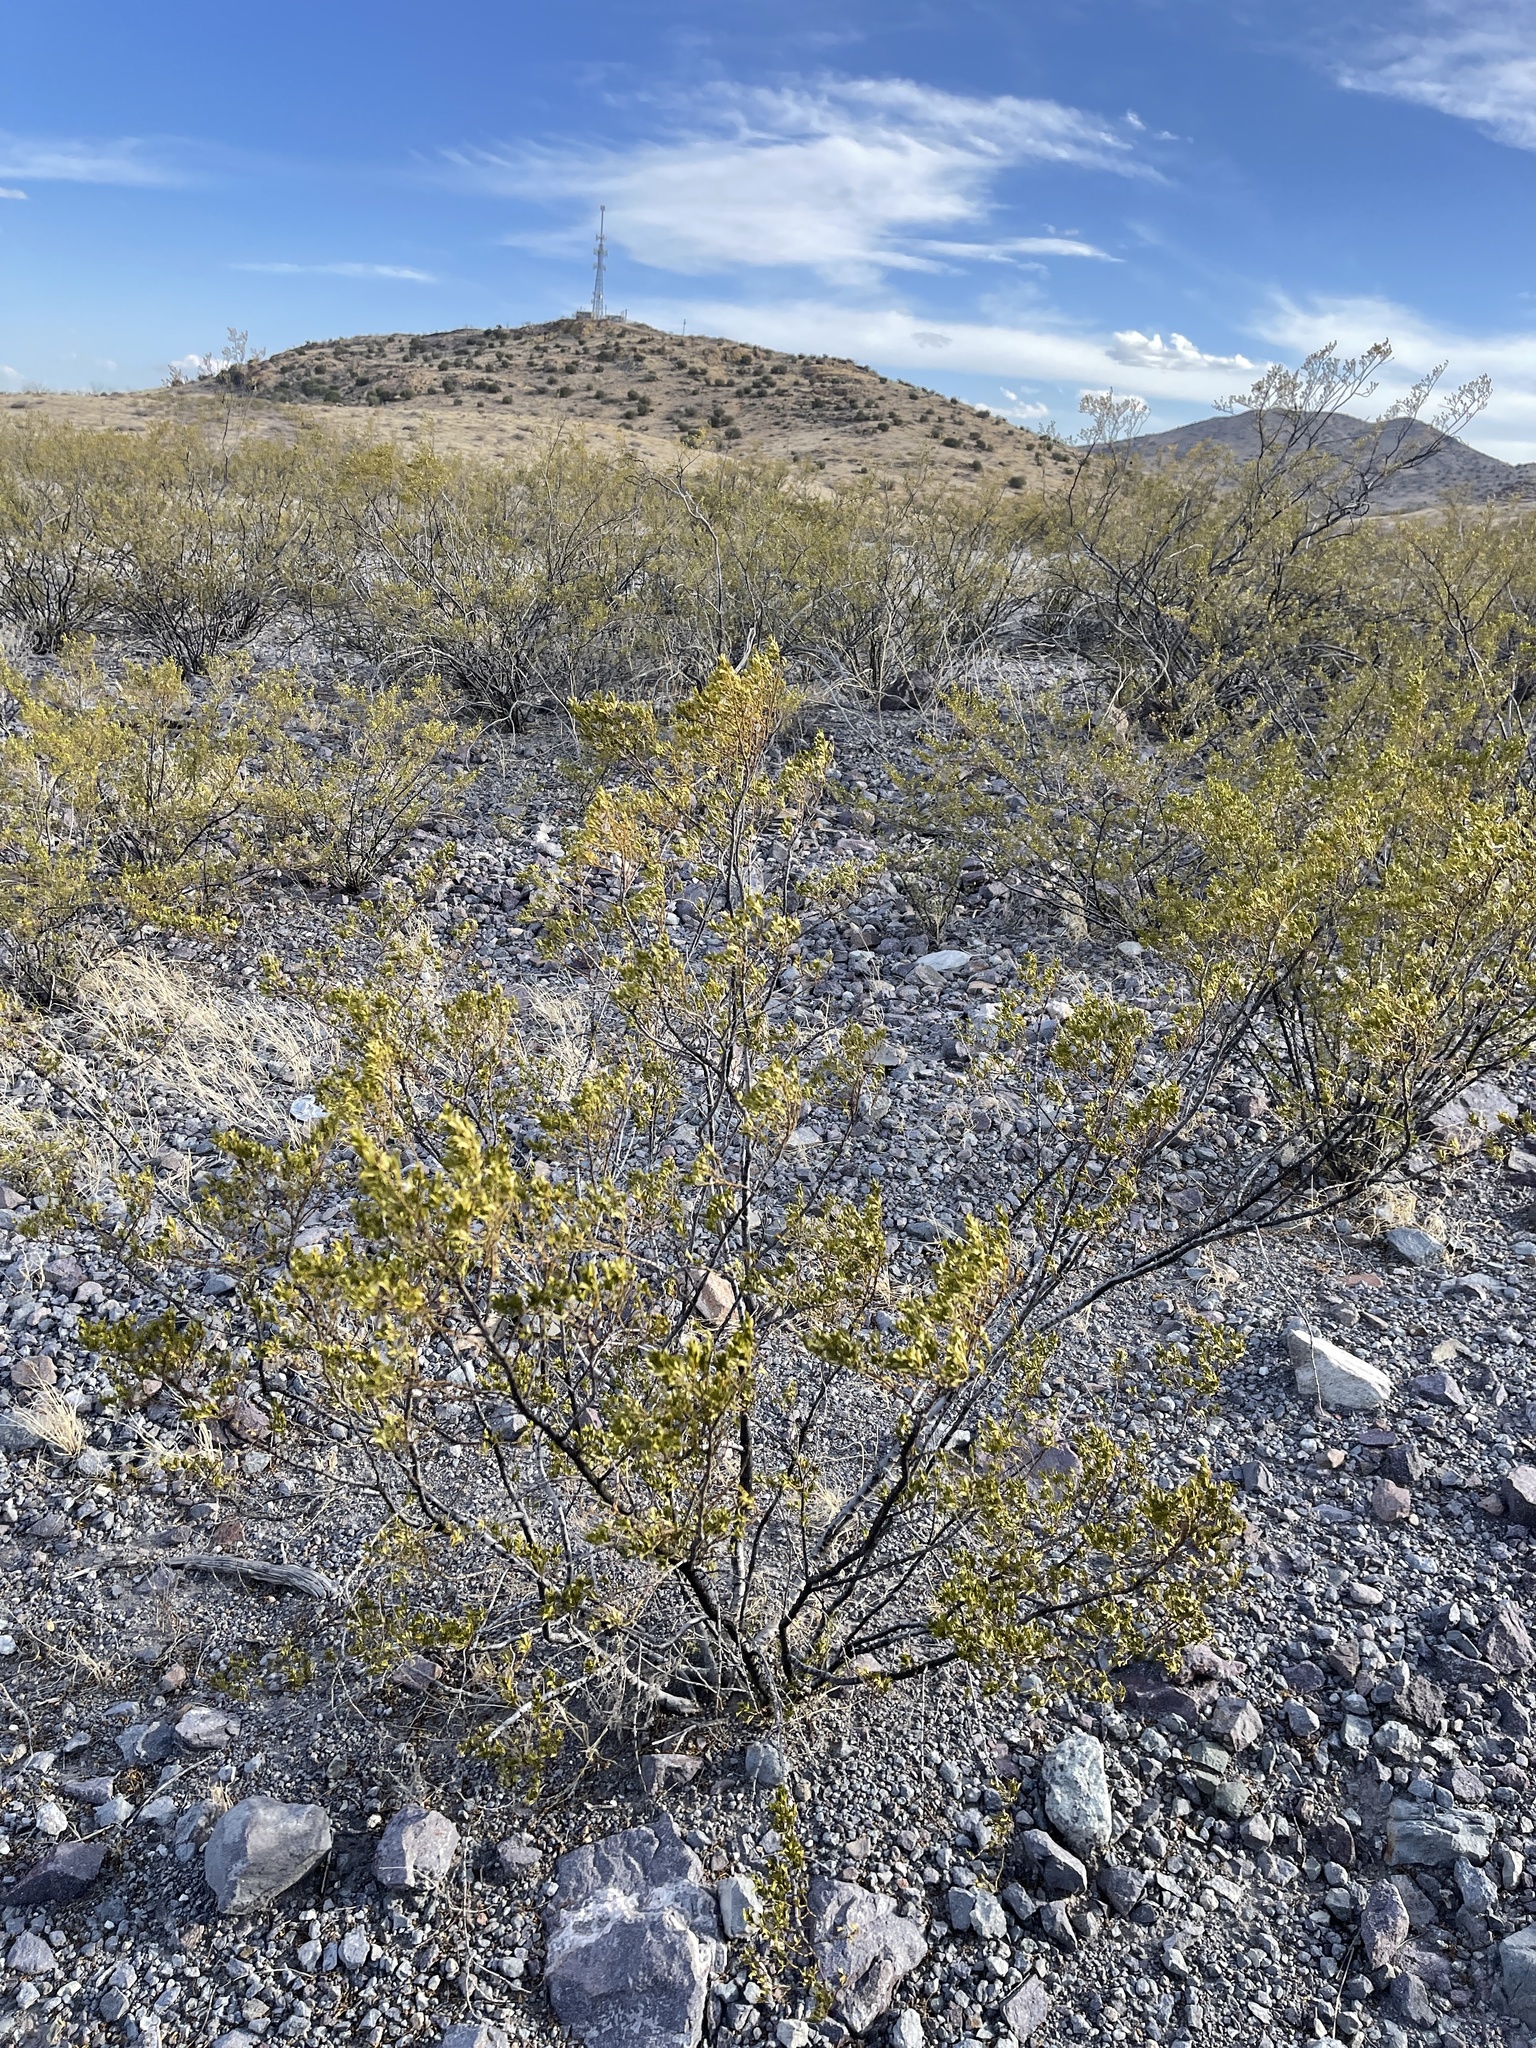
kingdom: Plantae
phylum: Tracheophyta
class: Magnoliopsida
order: Zygophyllales
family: Zygophyllaceae
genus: Larrea
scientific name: Larrea tridentata
